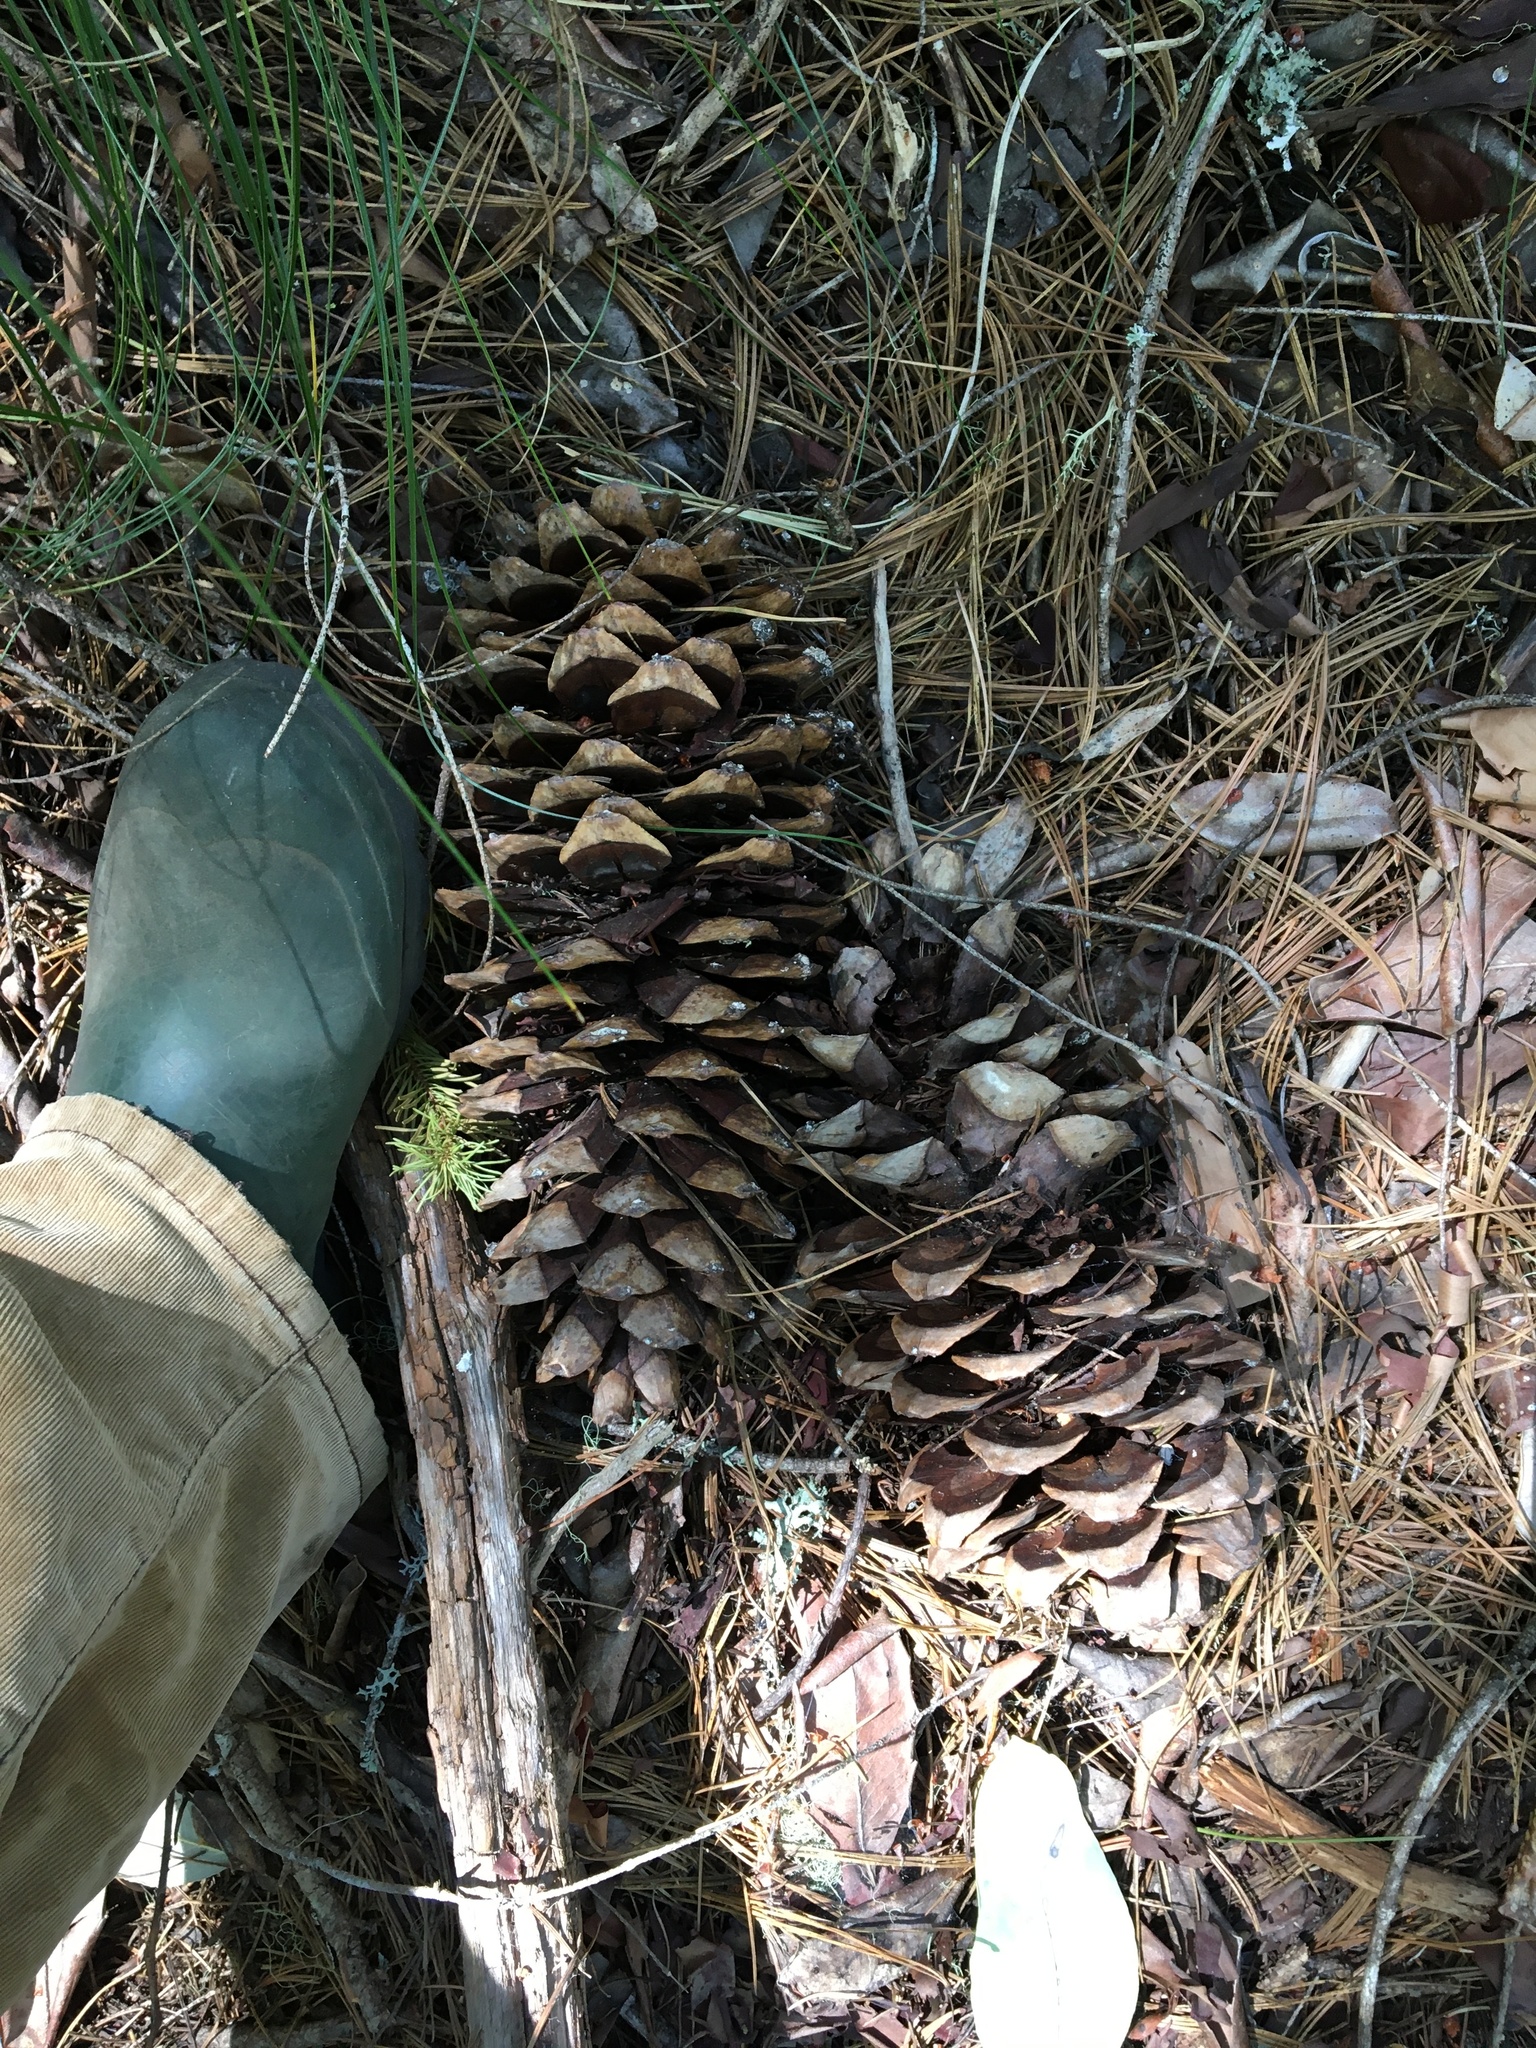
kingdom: Plantae
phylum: Tracheophyta
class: Pinopsida
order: Pinales
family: Pinaceae
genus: Pinus
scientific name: Pinus lambertiana
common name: Sugar pine
